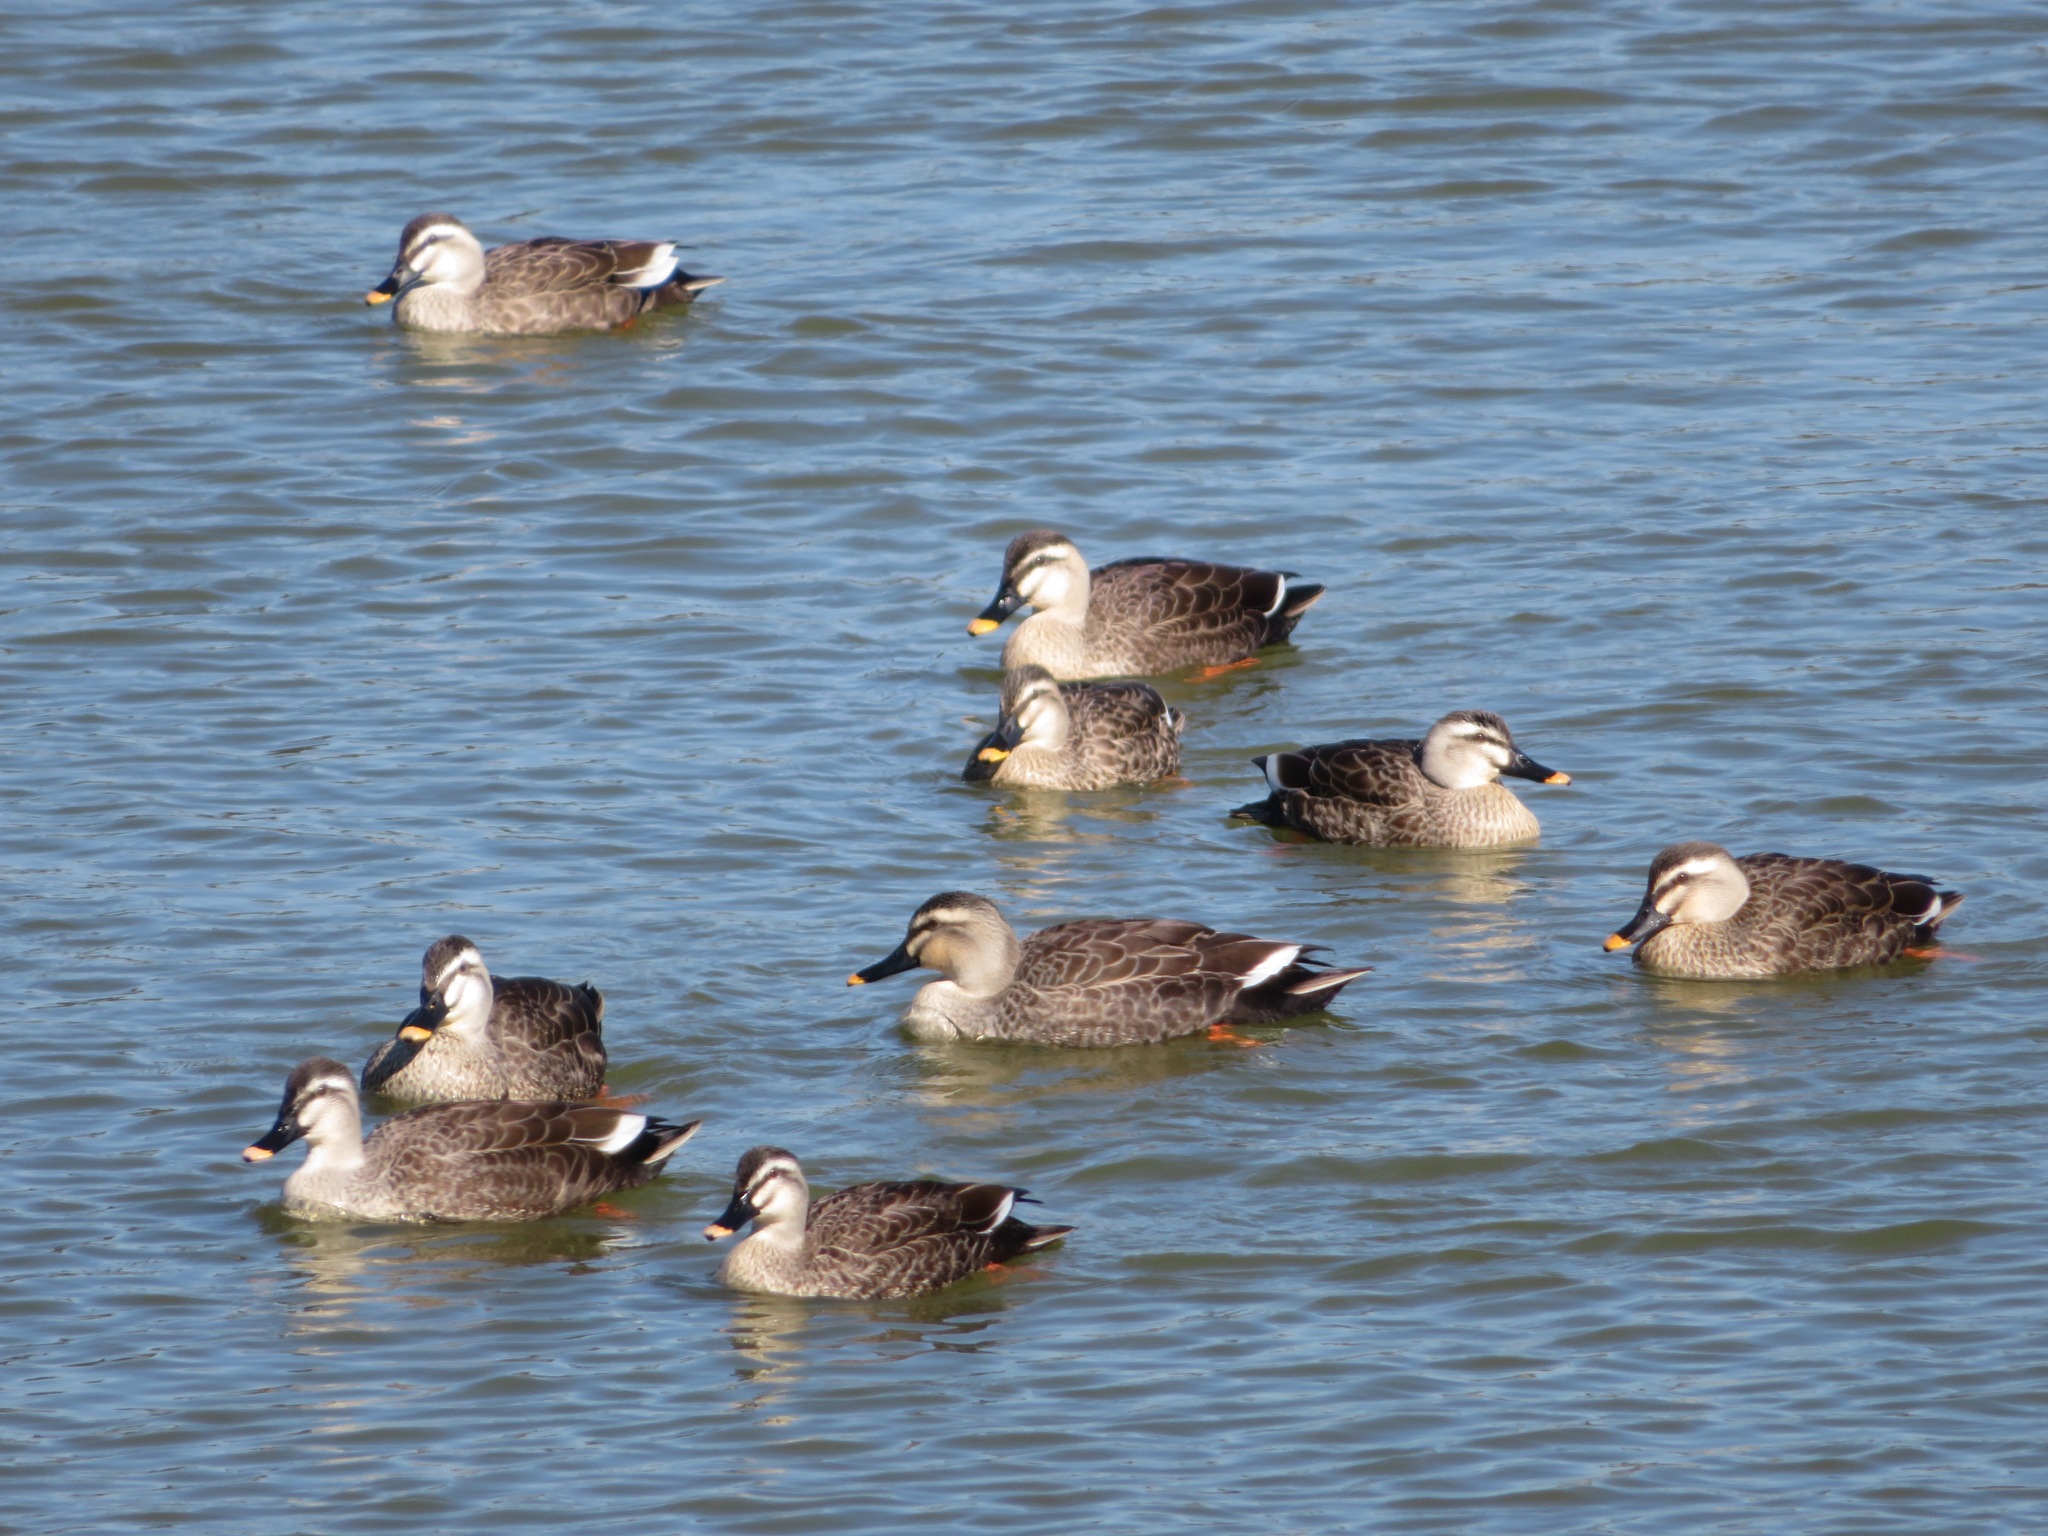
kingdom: Animalia
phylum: Chordata
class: Aves
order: Anseriformes
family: Anatidae
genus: Anas
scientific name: Anas zonorhyncha
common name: Eastern spot-billed duck
